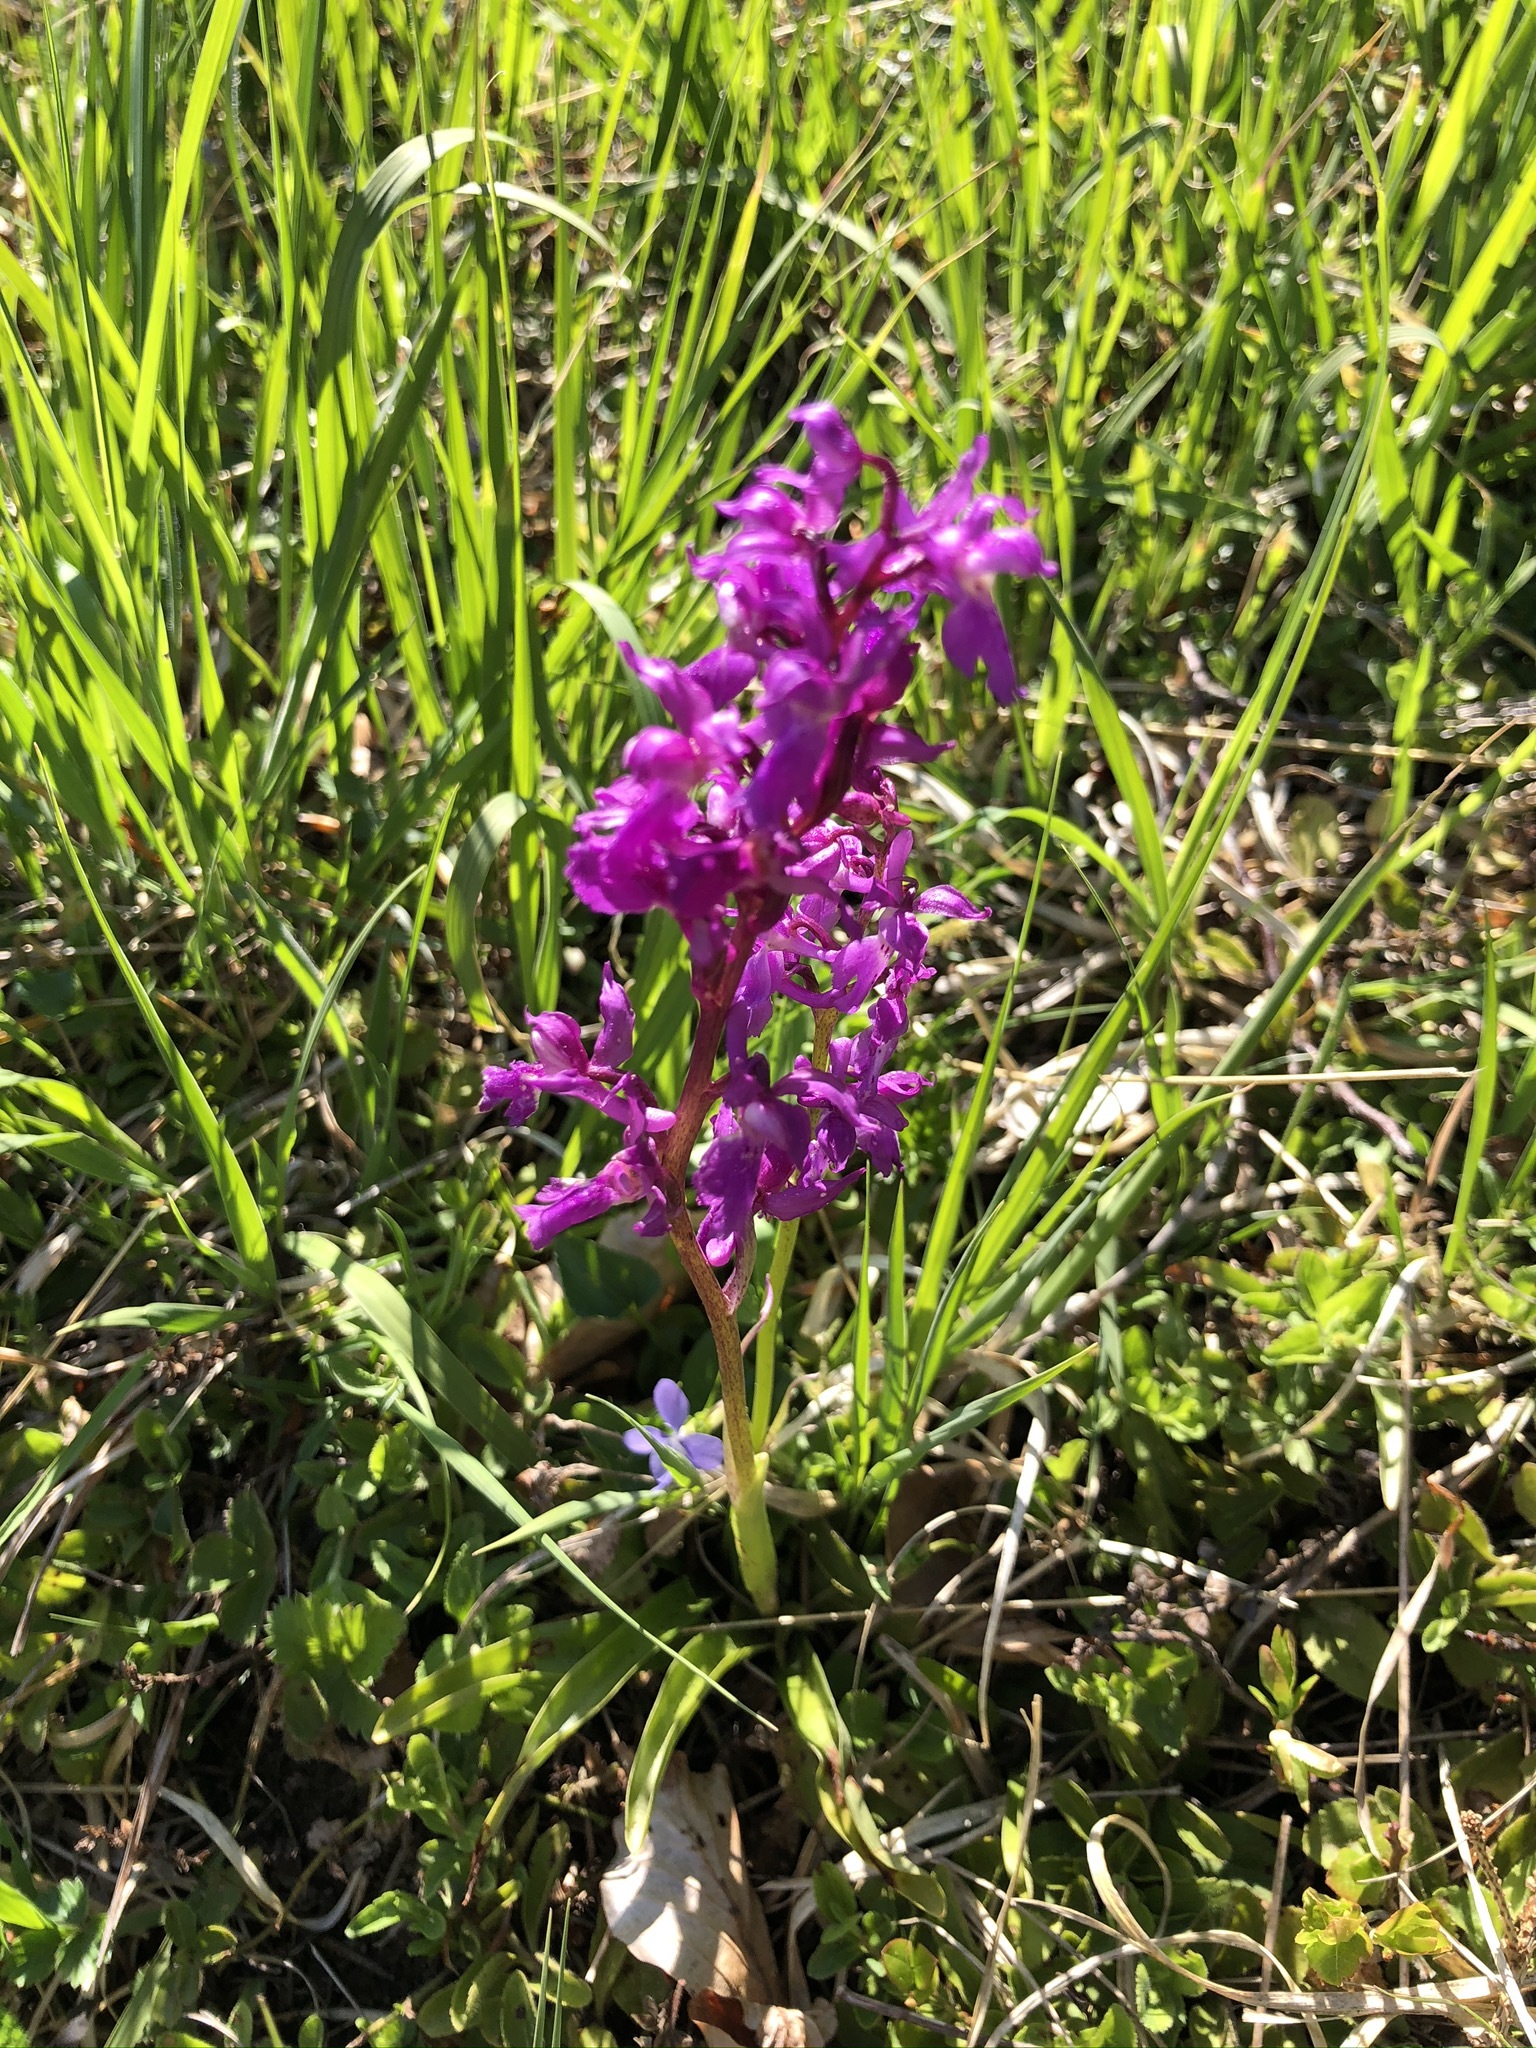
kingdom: Plantae
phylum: Tracheophyta
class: Liliopsida
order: Asparagales
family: Orchidaceae
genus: Orchis
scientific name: Orchis mascula
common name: Early-purple orchid
